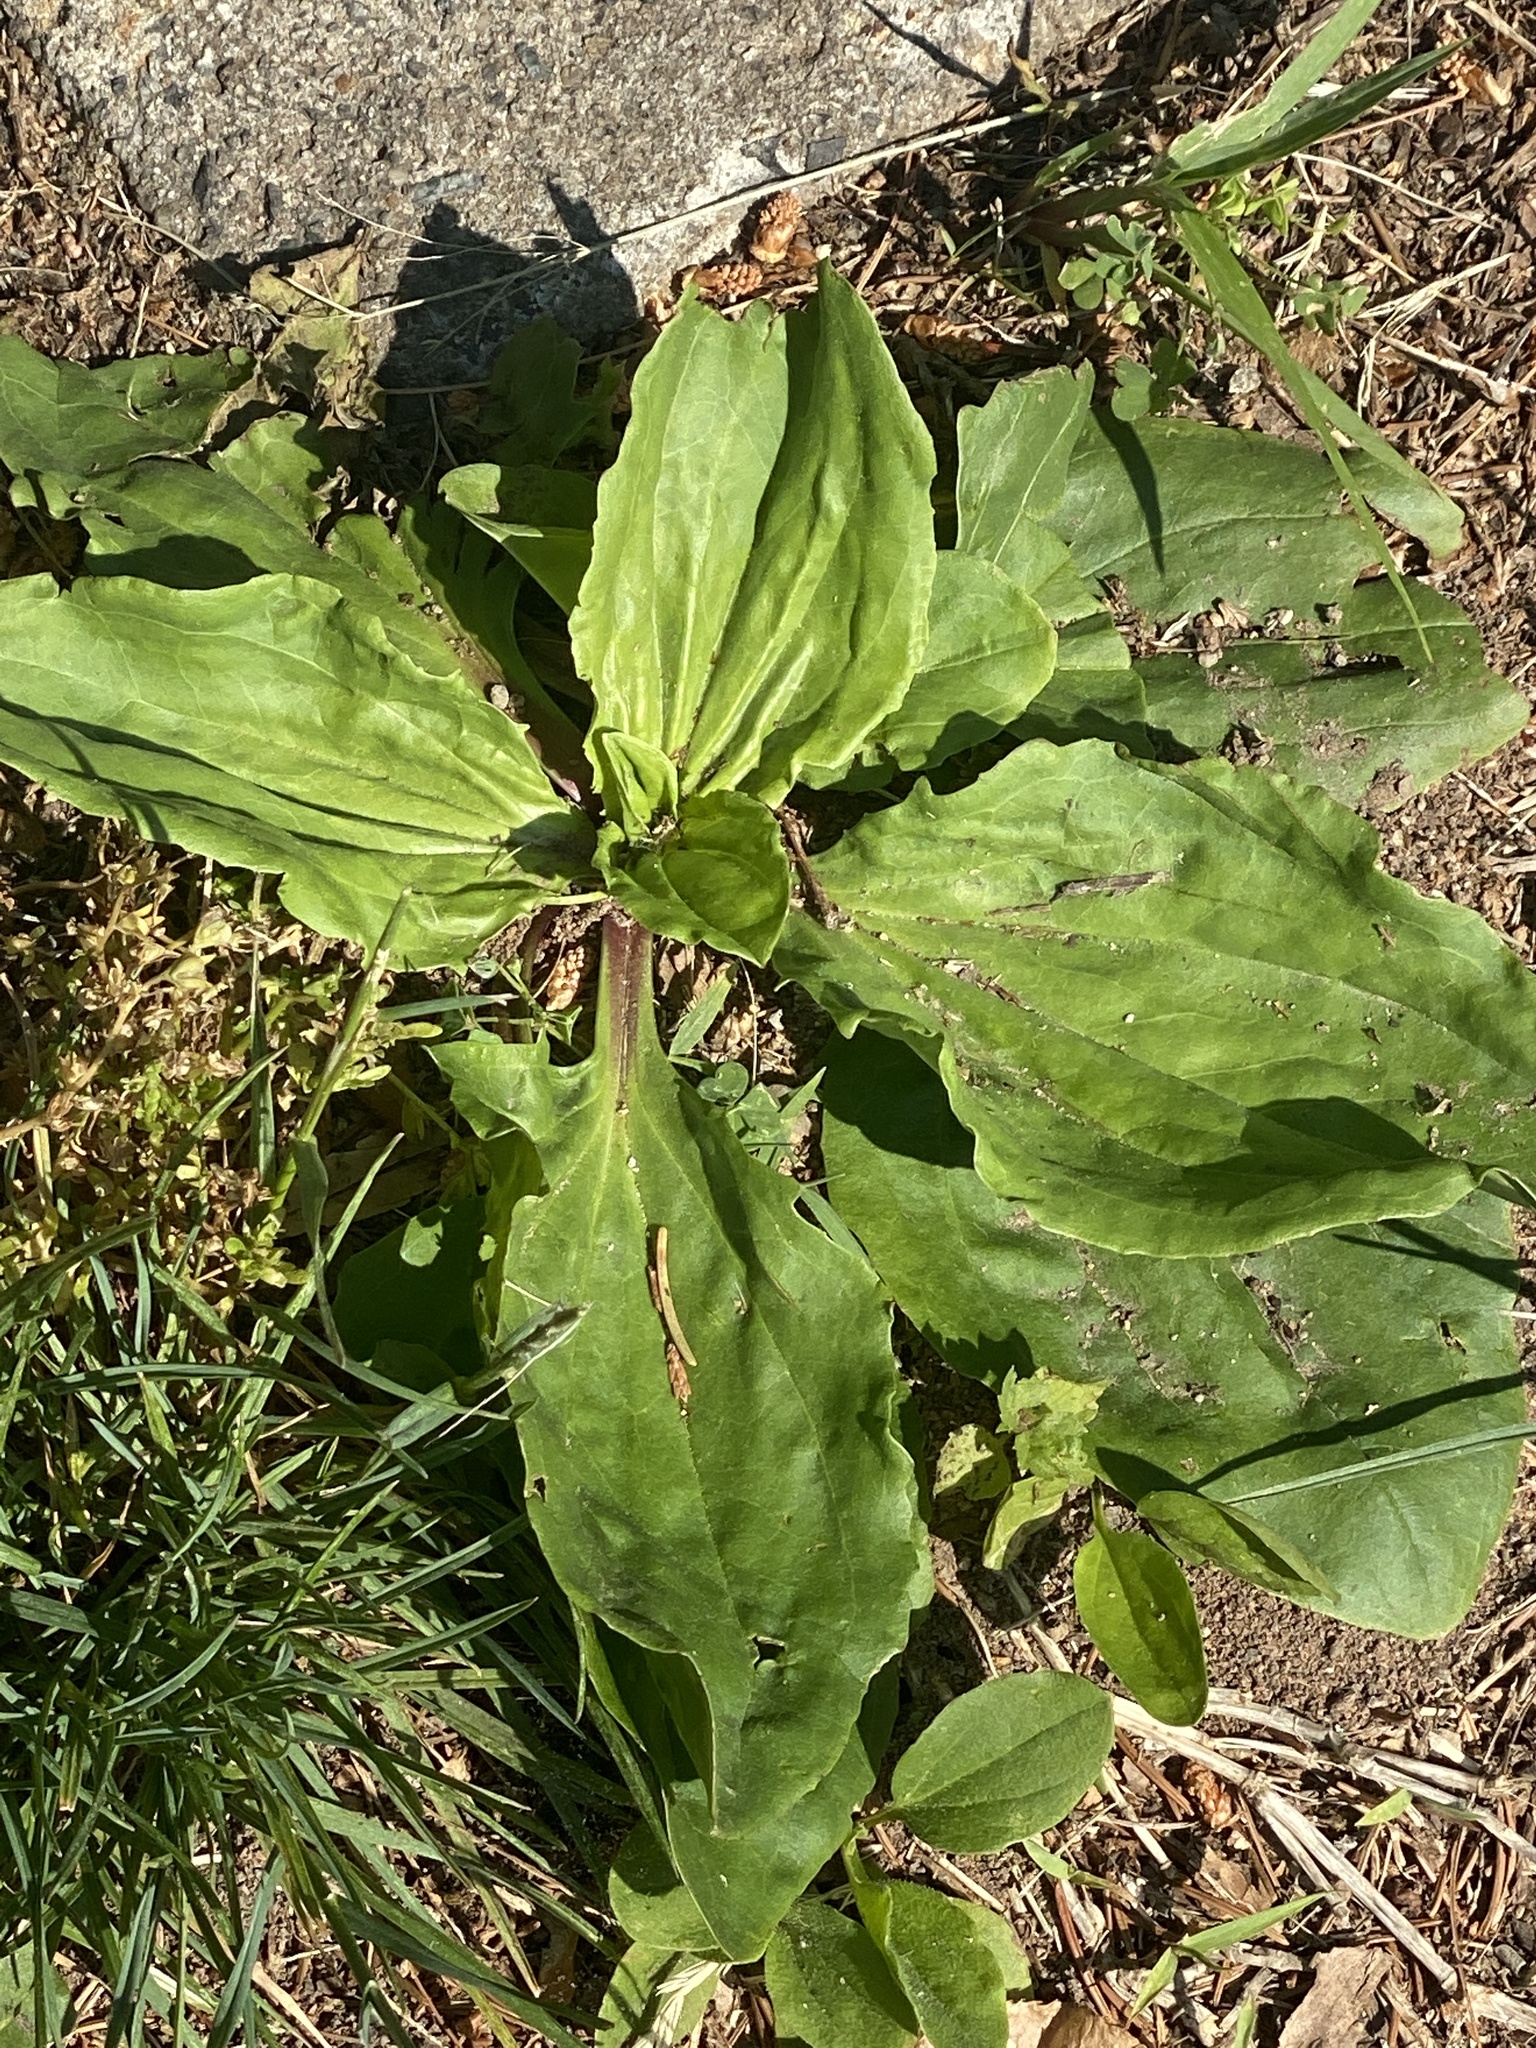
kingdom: Plantae
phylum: Tracheophyta
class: Magnoliopsida
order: Lamiales
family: Plantaginaceae
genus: Plantago
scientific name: Plantago rugelii
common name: American plantain
